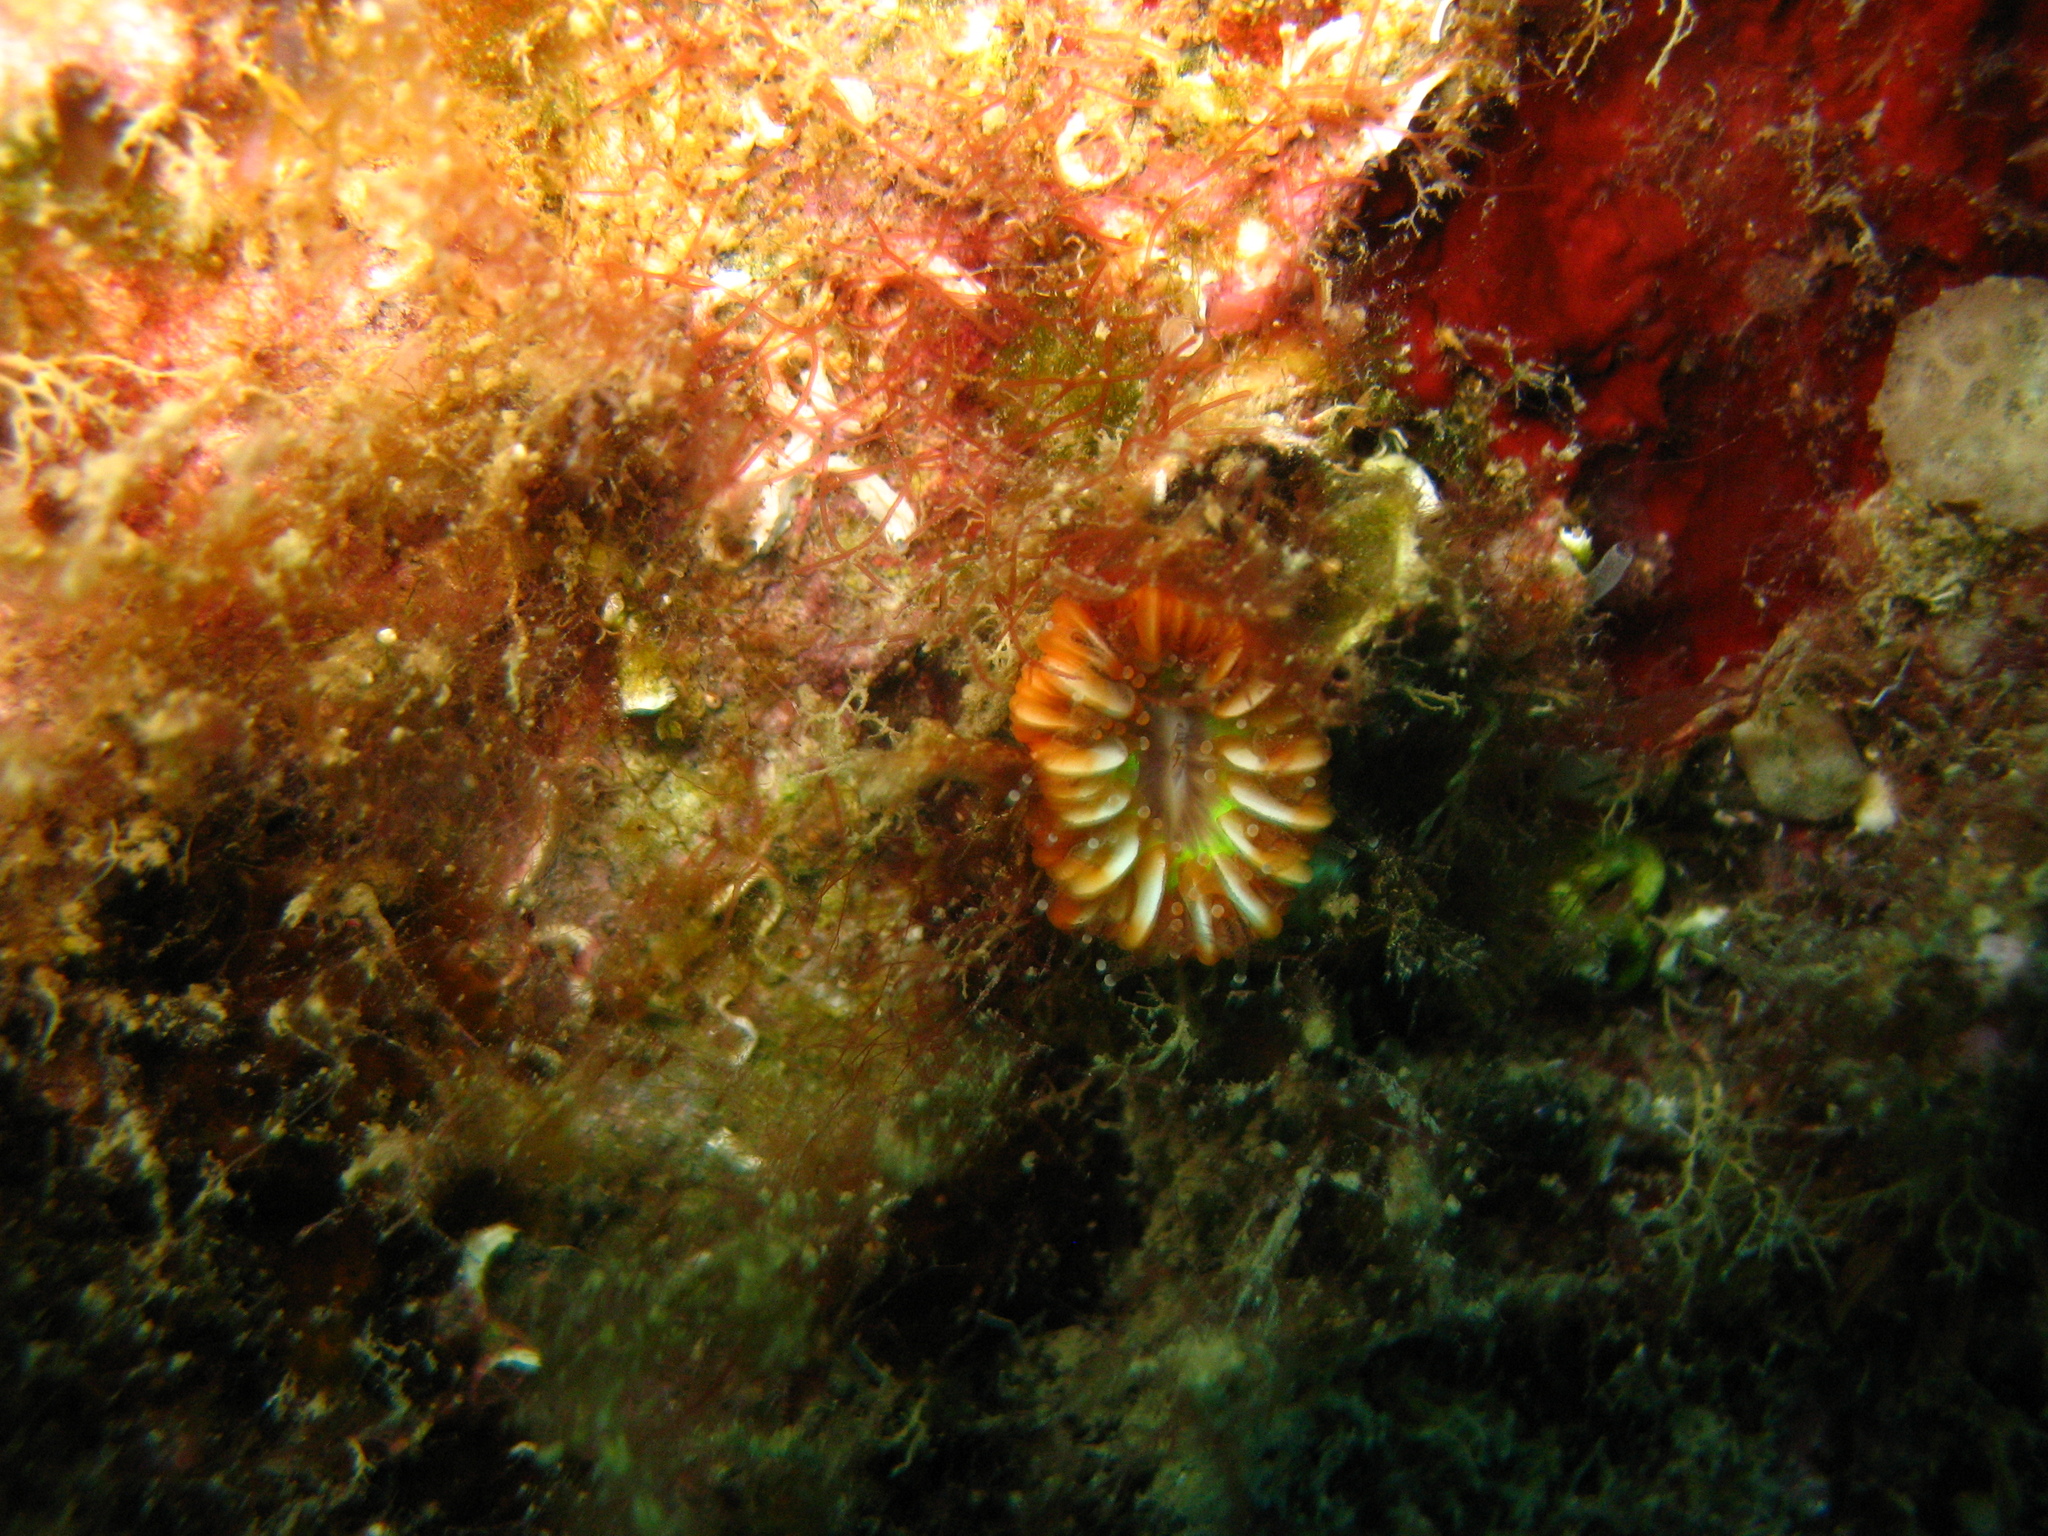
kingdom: Animalia
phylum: Cnidaria
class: Anthozoa
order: Scleractinia
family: Caryophylliidae
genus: Caryophyllia
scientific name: Caryophyllia smithii
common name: Devonshire cup coral
